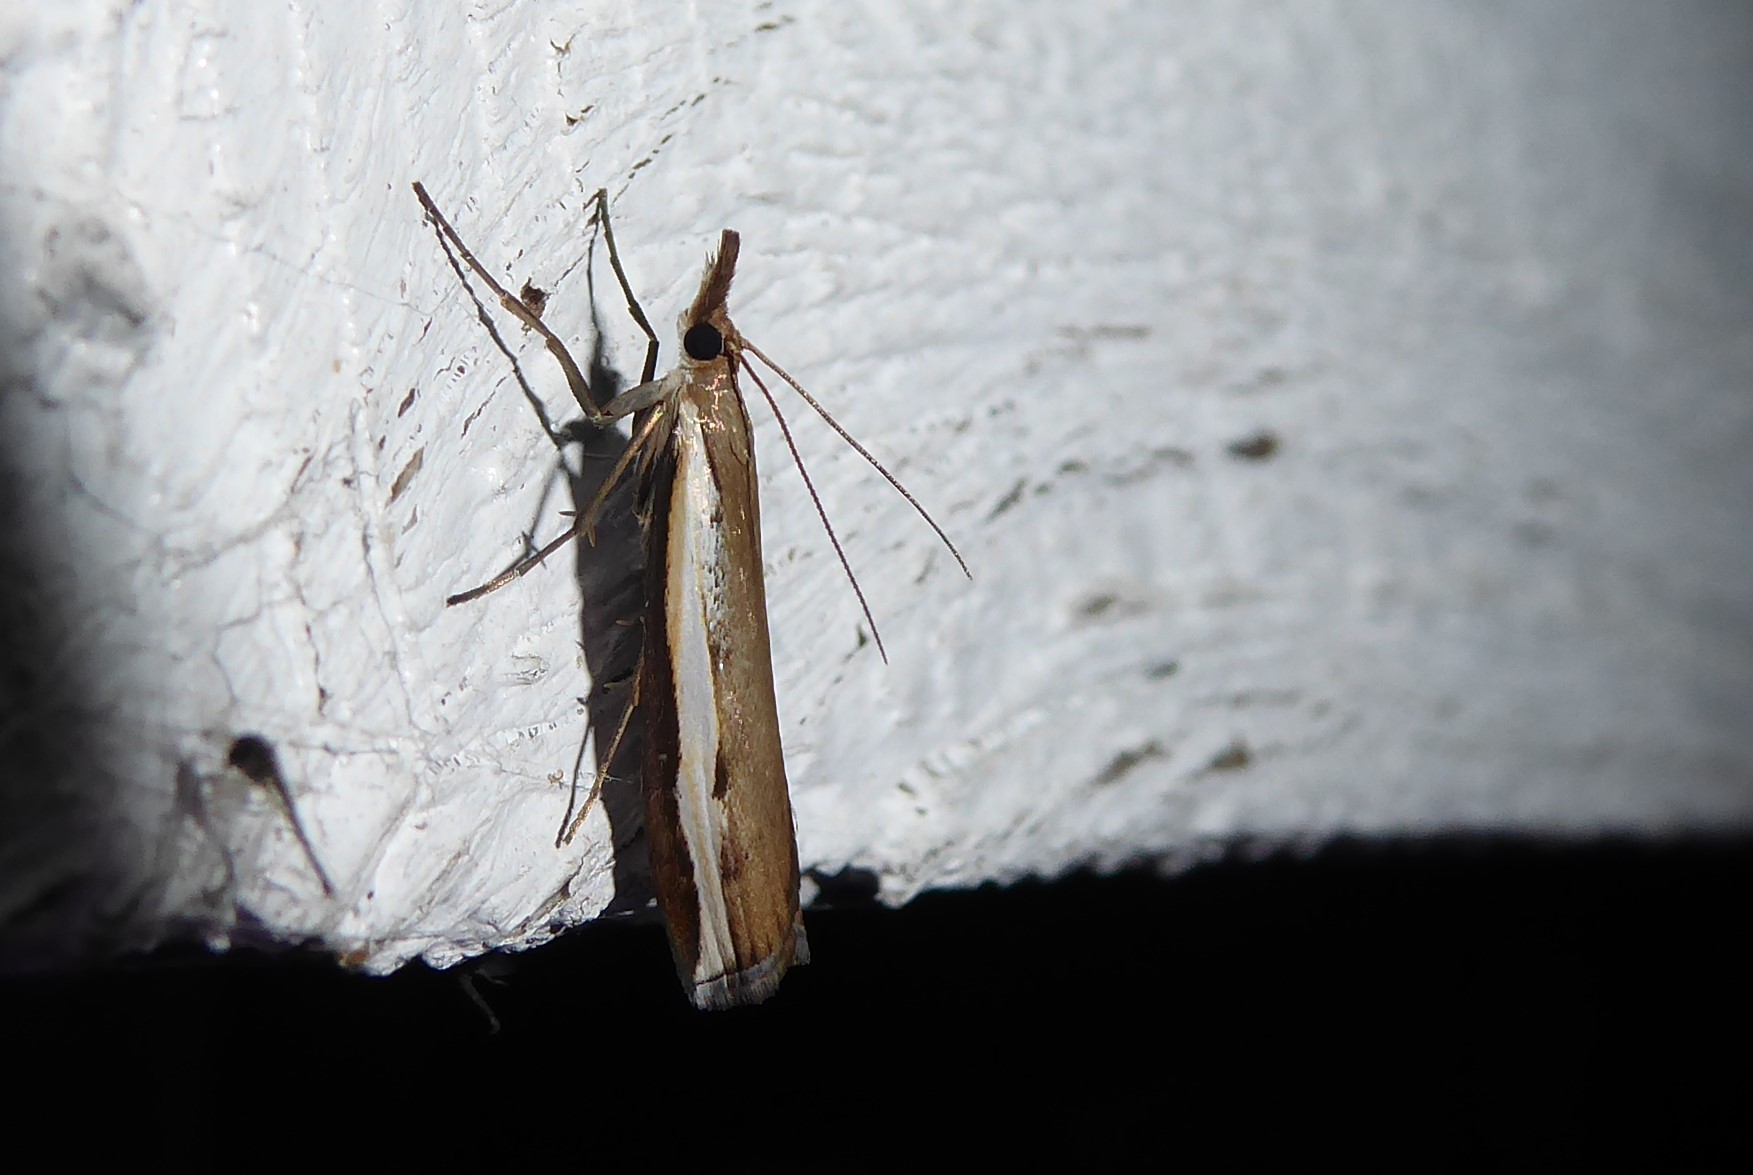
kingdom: Animalia
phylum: Arthropoda
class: Insecta
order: Lepidoptera
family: Crambidae
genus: Orocrambus
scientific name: Orocrambus flexuosellus
